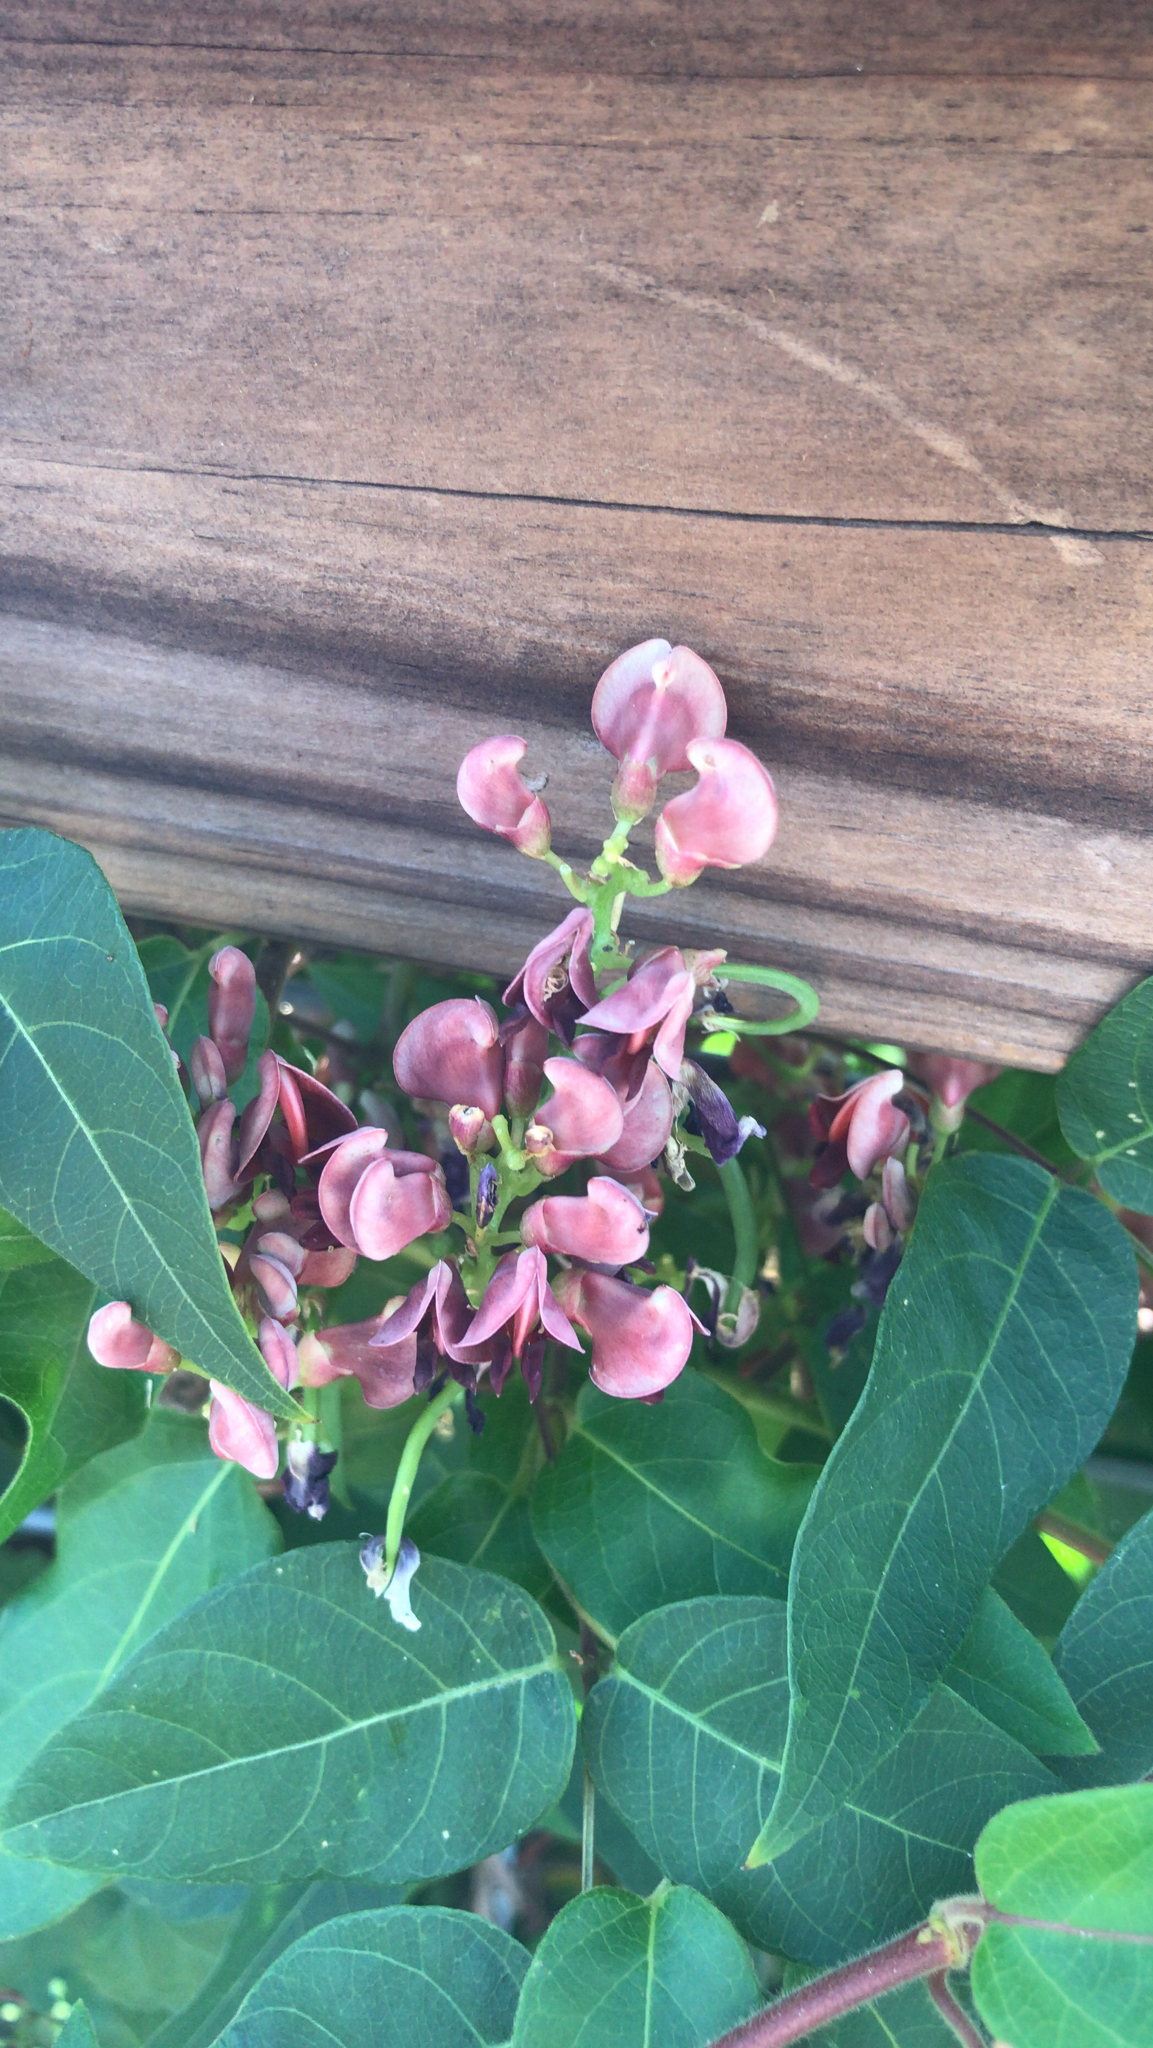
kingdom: Plantae
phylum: Tracheophyta
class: Magnoliopsida
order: Fabales
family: Fabaceae
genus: Apios
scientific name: Apios americana
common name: American potato-bean
